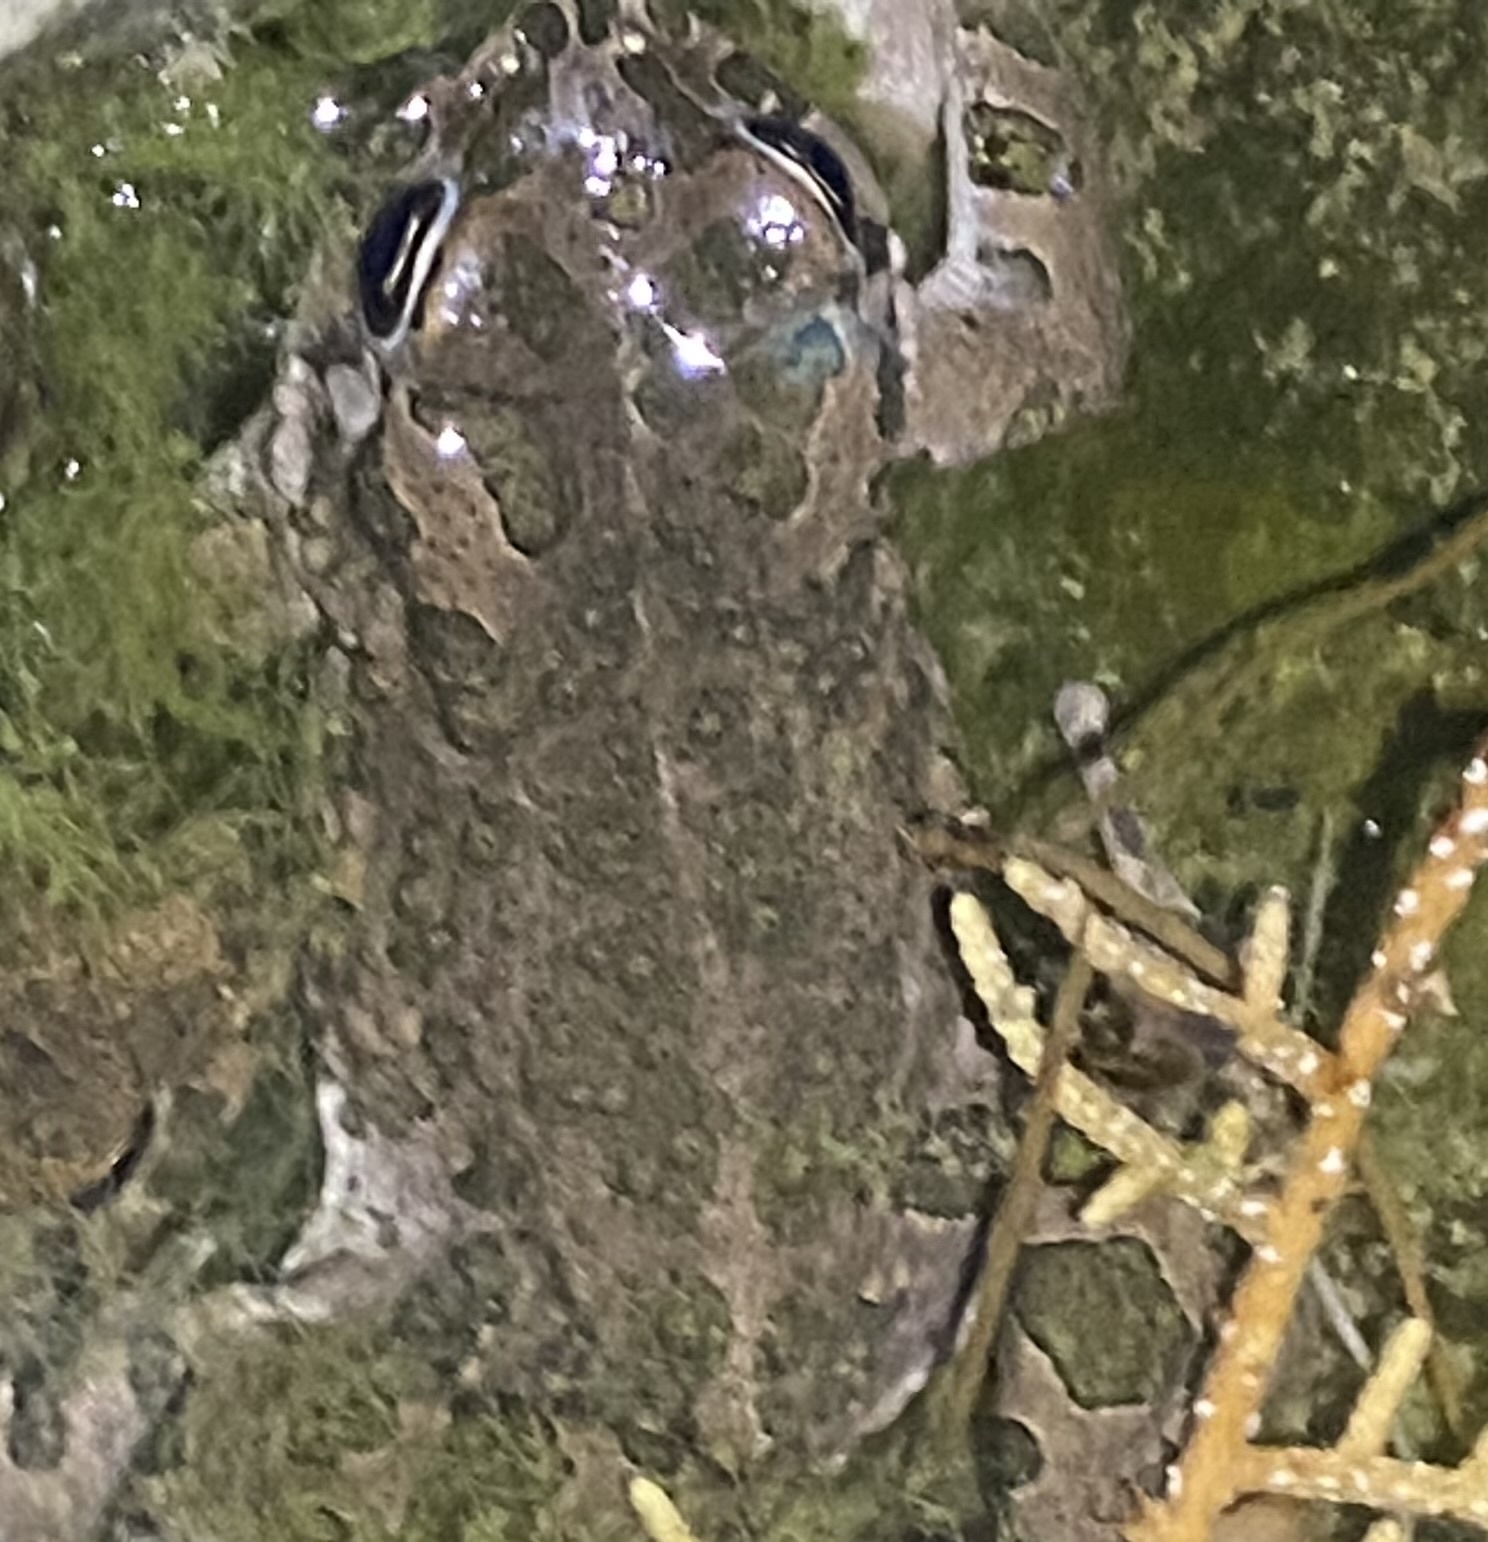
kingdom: Animalia
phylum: Chordata
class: Amphibia
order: Anura
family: Bufonidae
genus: Bufotes
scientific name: Bufotes viridis
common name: European green toad
